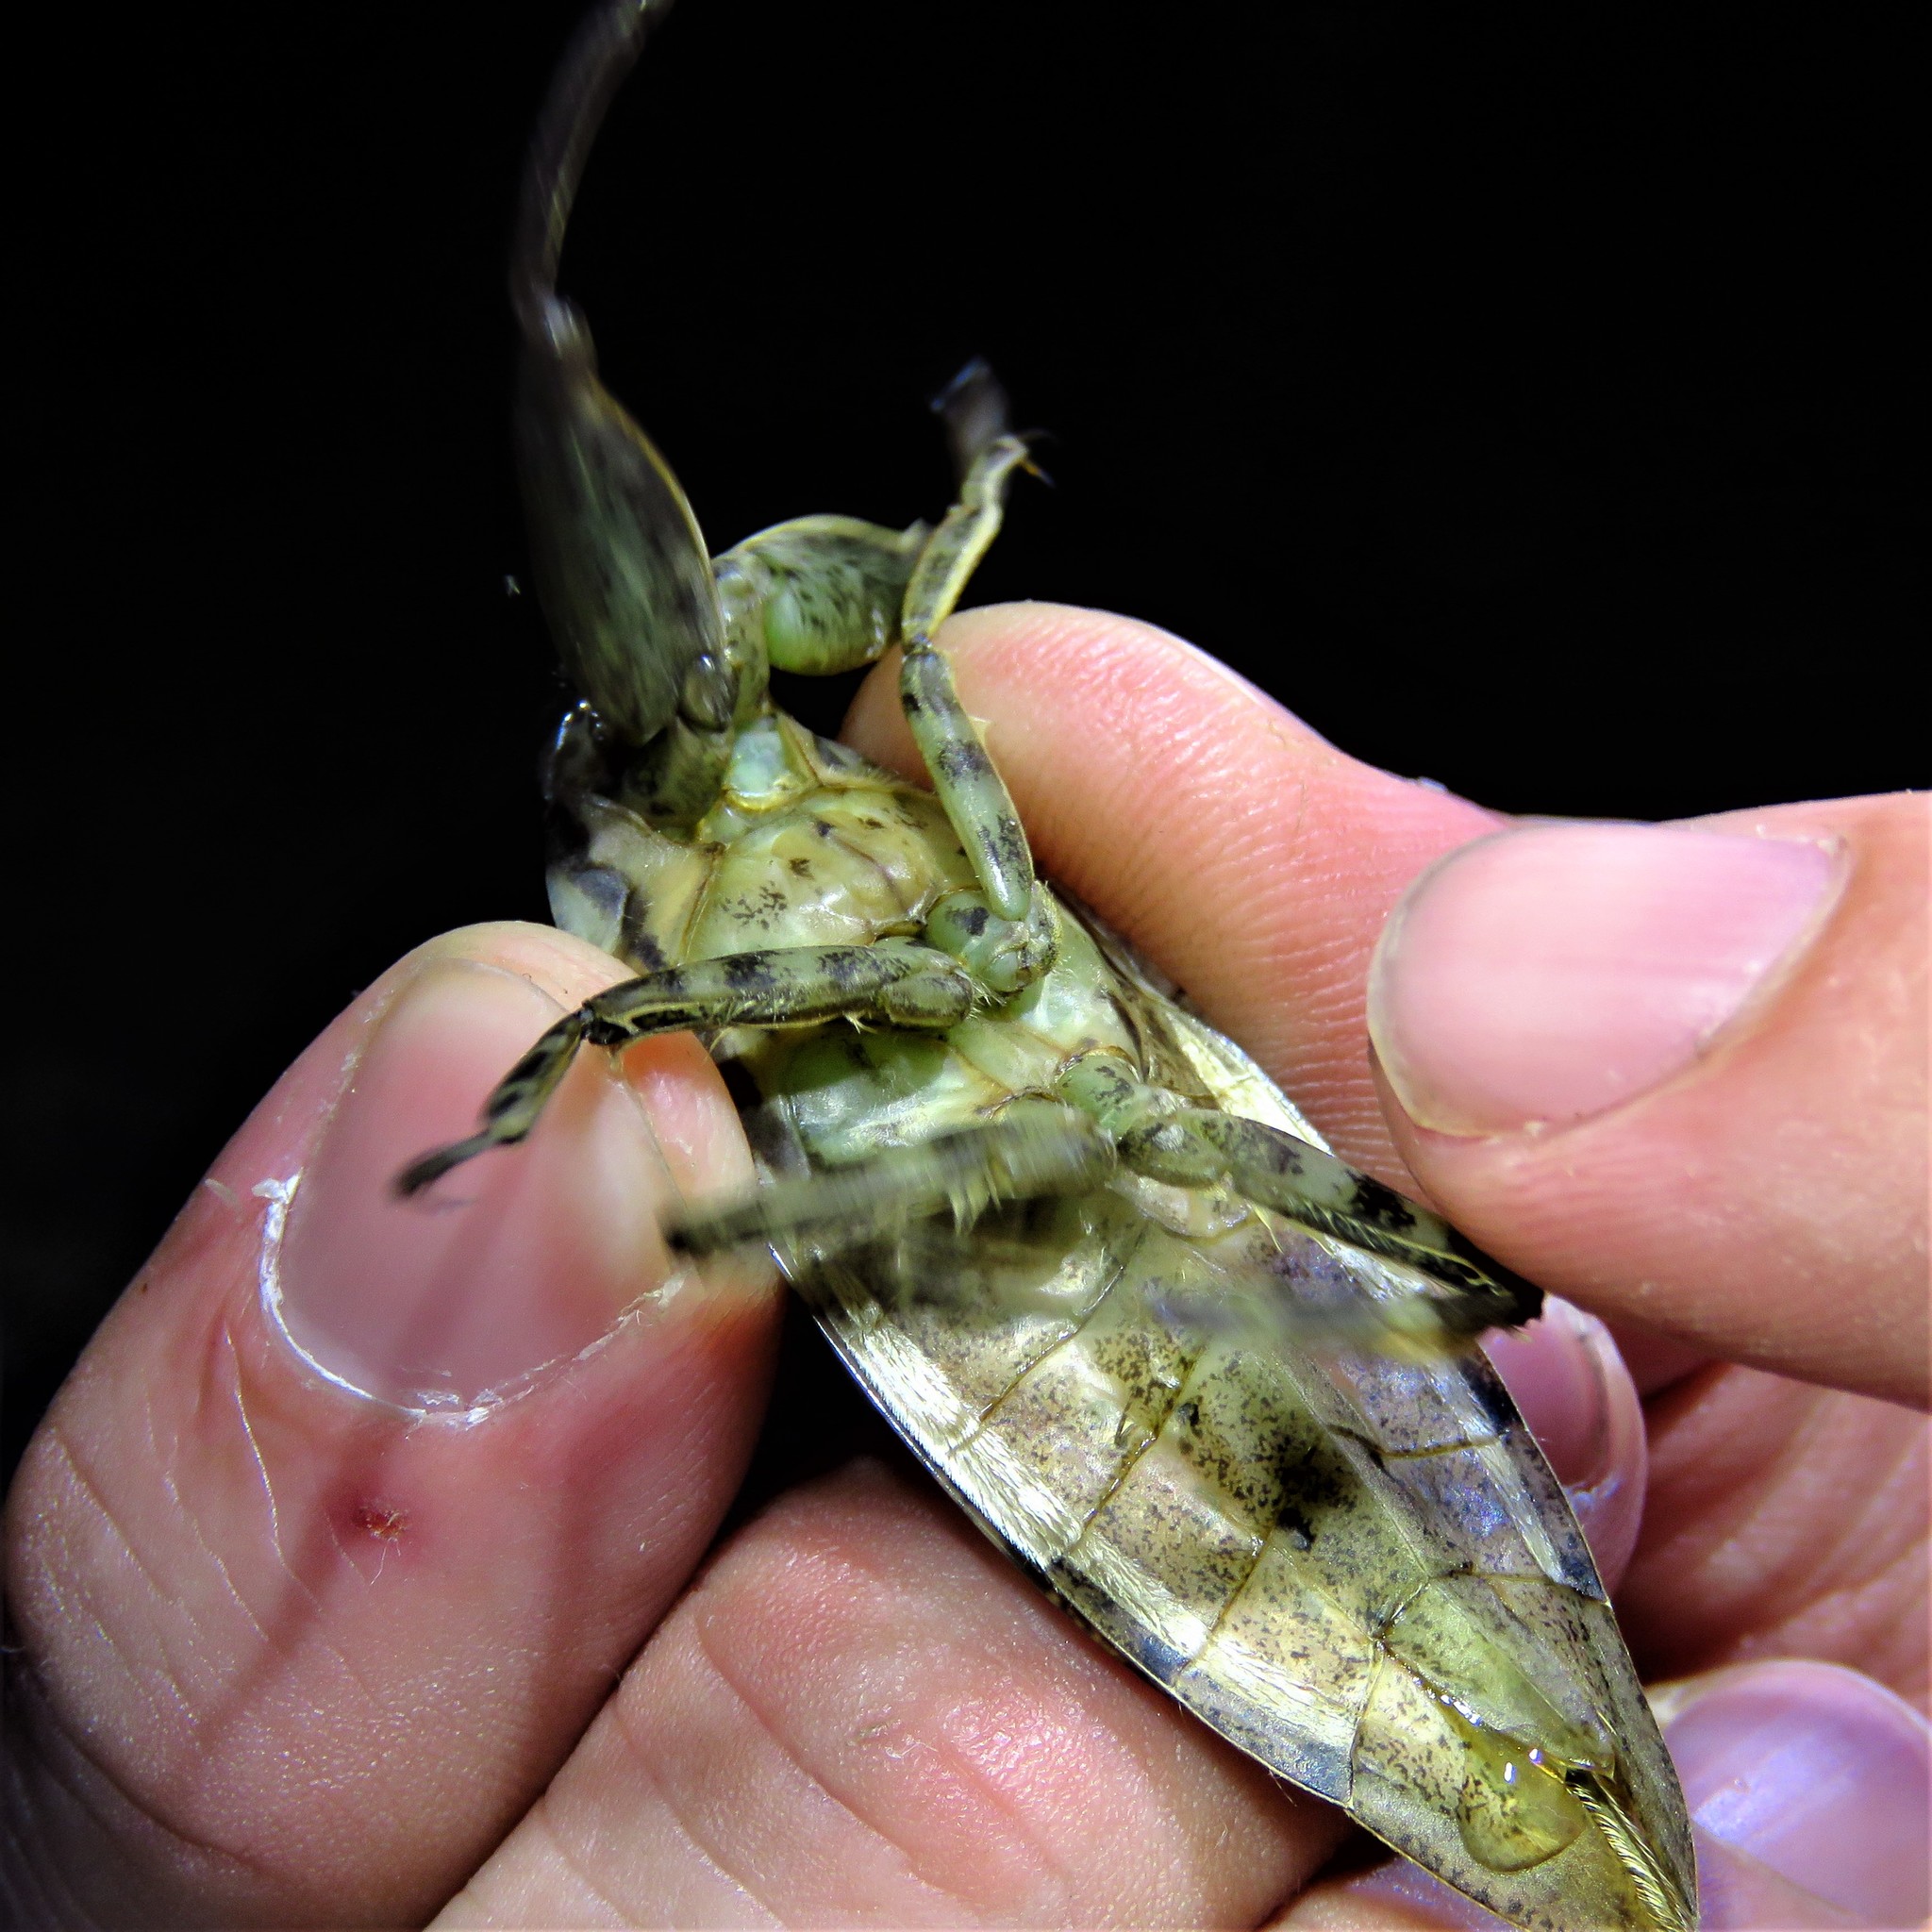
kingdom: Animalia
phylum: Arthropoda
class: Insecta
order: Hemiptera
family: Belostomatidae
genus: Lethocerus
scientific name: Lethocerus uhleri
